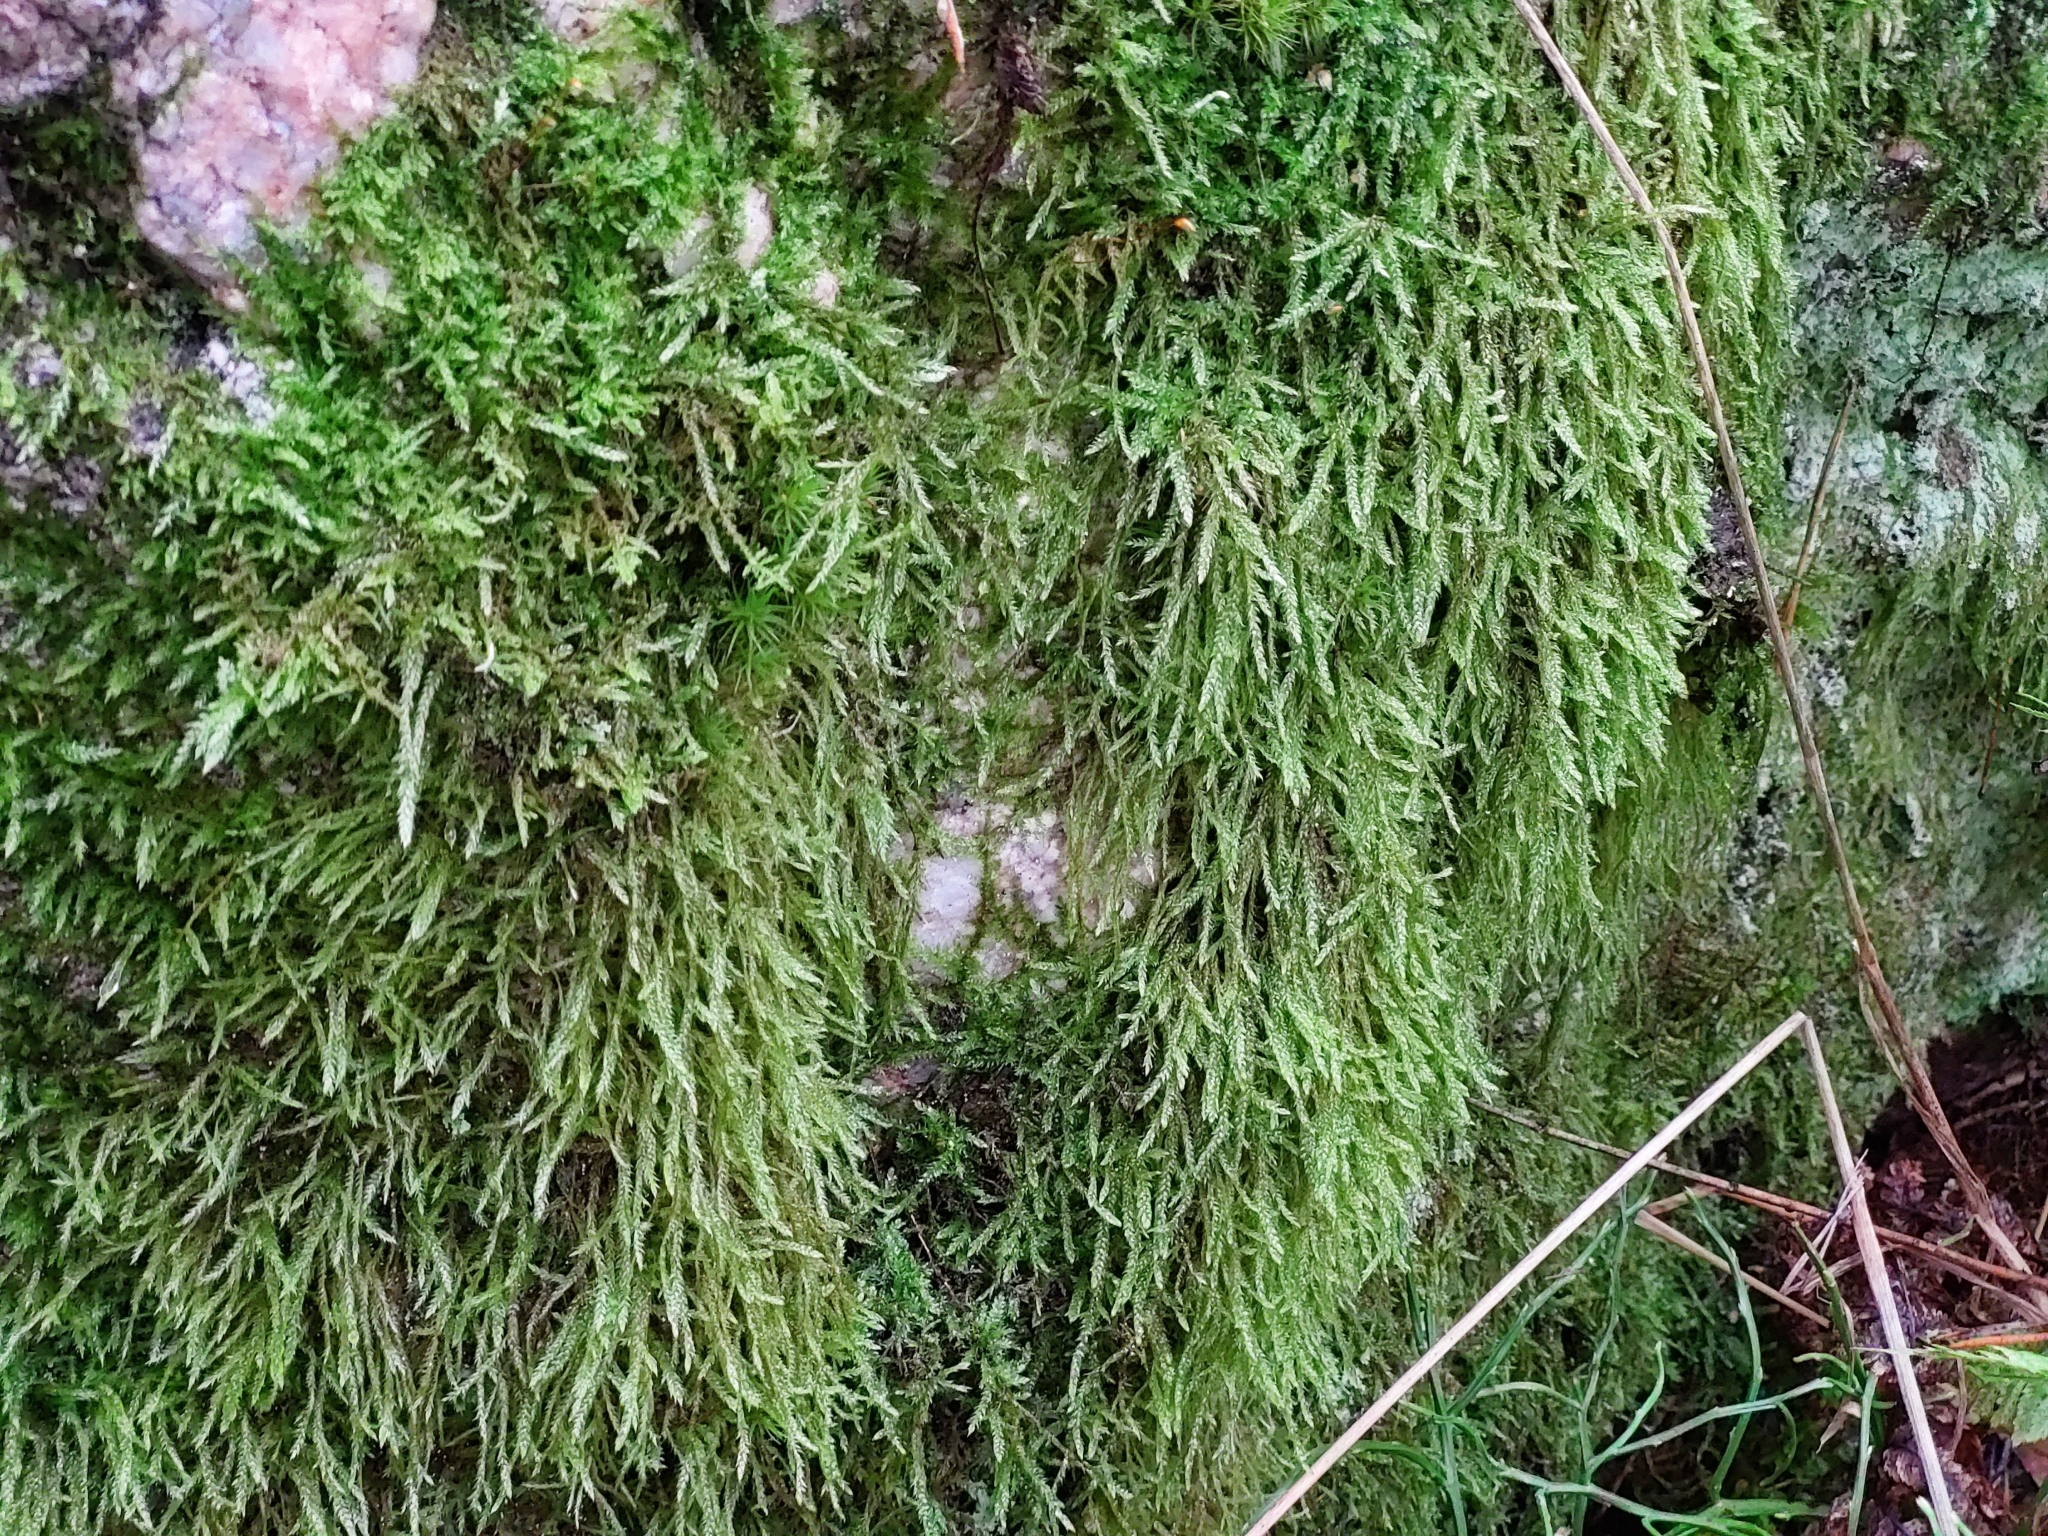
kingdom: Plantae
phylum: Bryophyta
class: Bryopsida
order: Hypnales
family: Hypnaceae
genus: Hypnum
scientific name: Hypnum cupressiforme
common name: Cypress-leaved plait-moss
